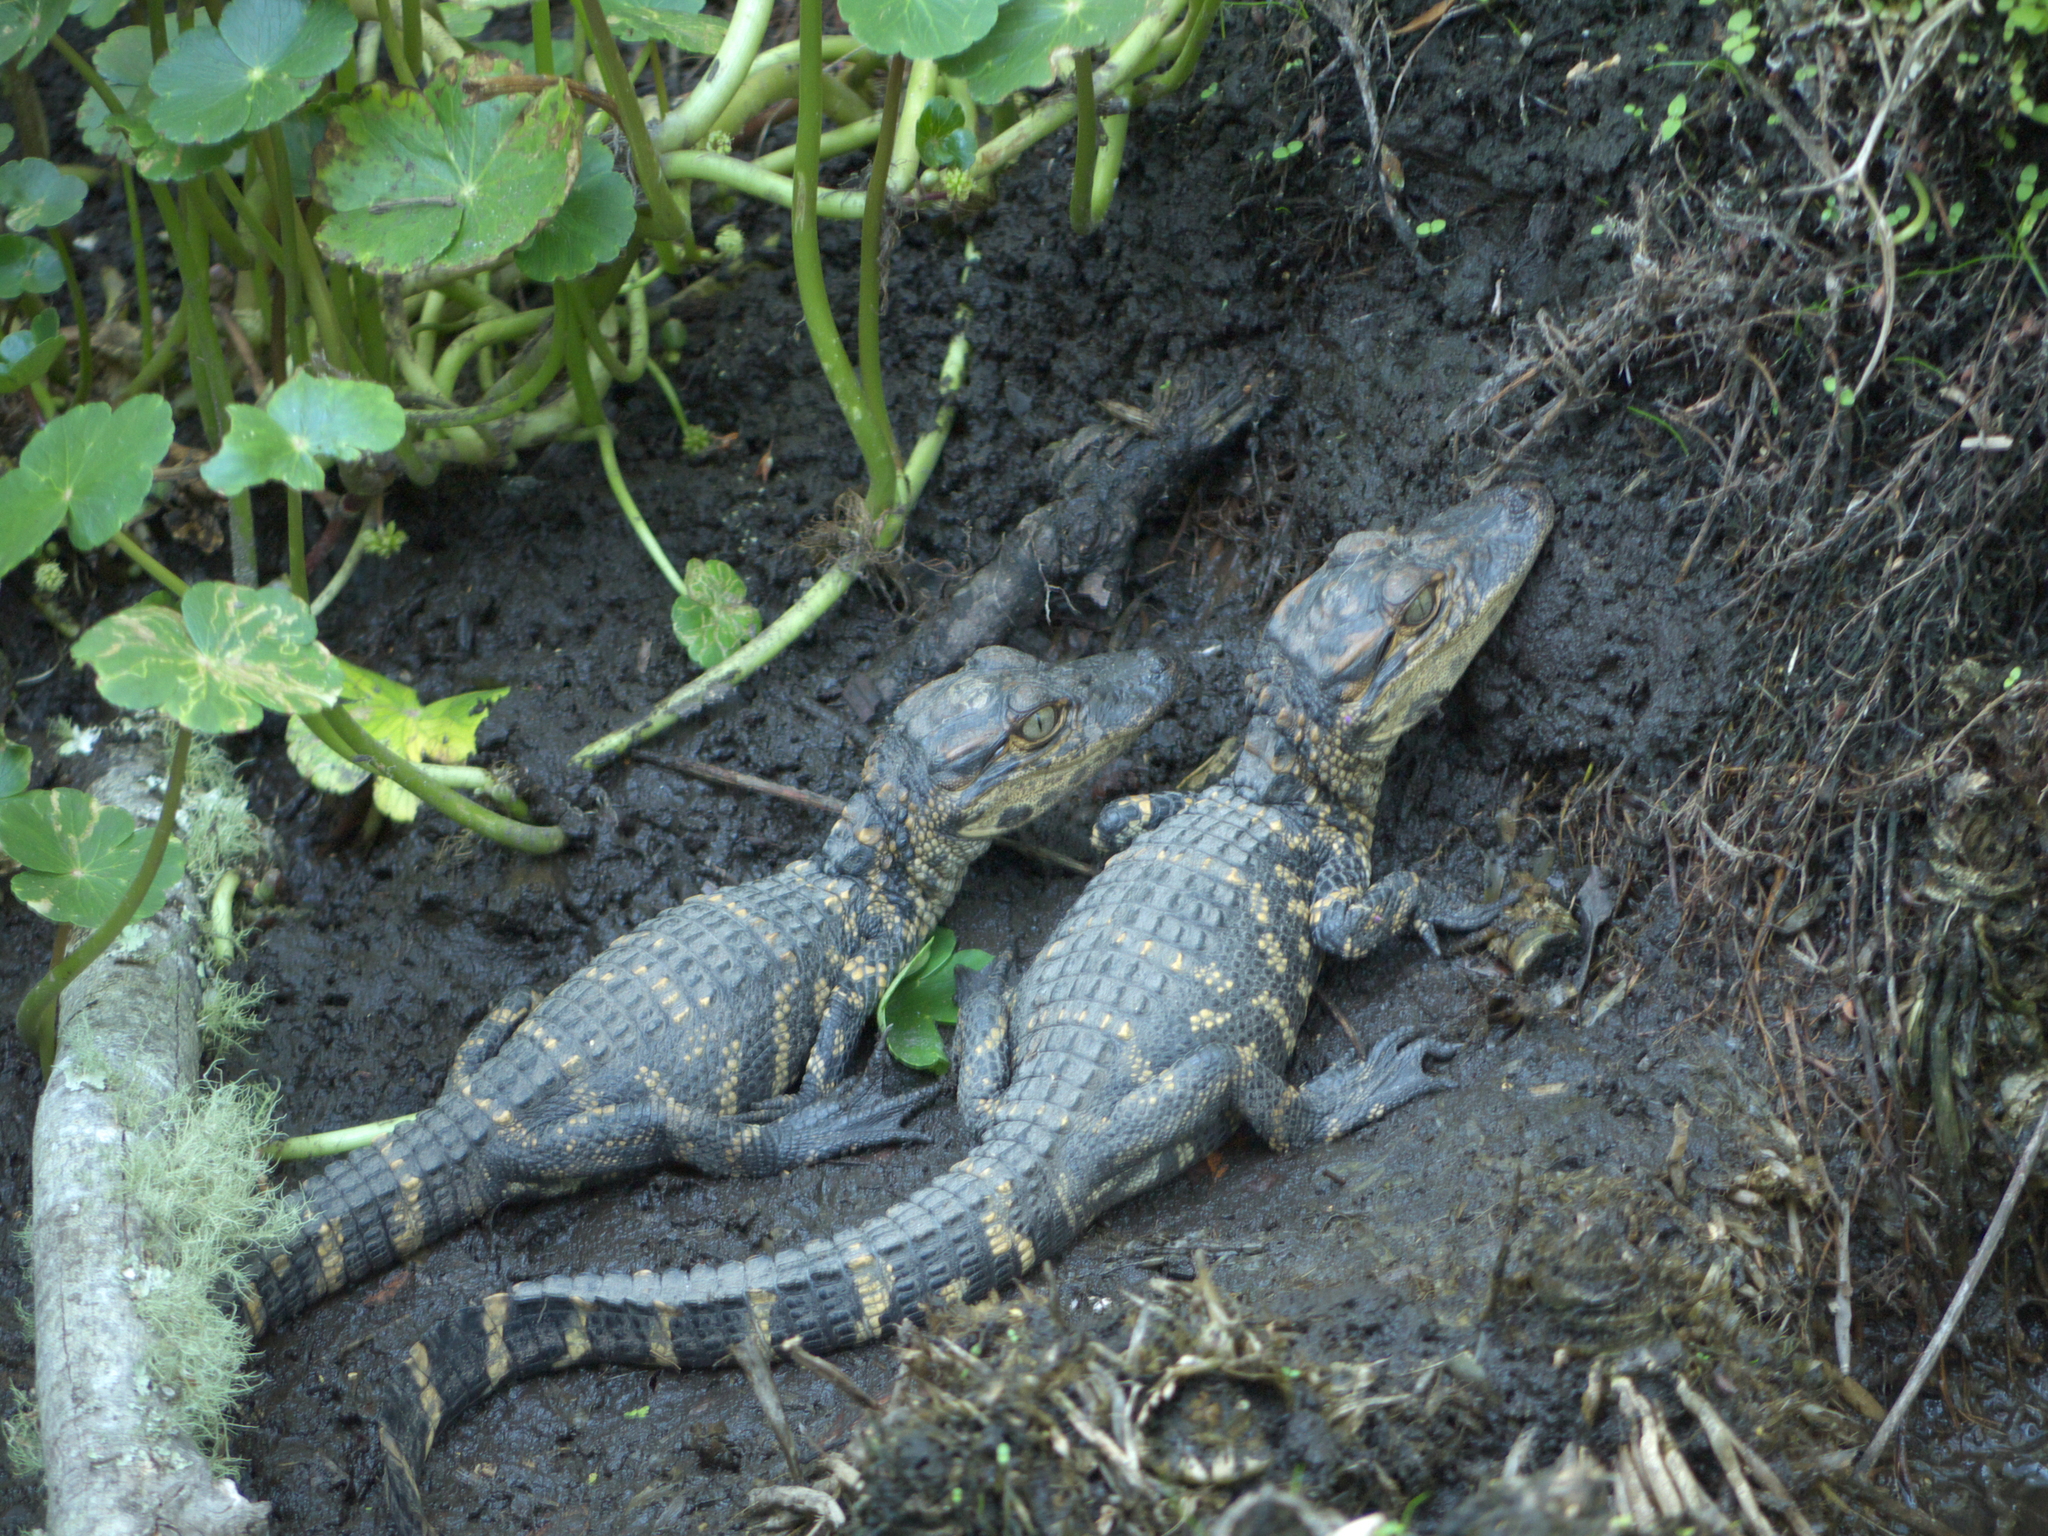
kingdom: Animalia
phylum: Chordata
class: Crocodylia
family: Alligatoridae
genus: Alligator
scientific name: Alligator mississippiensis
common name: American alligator
